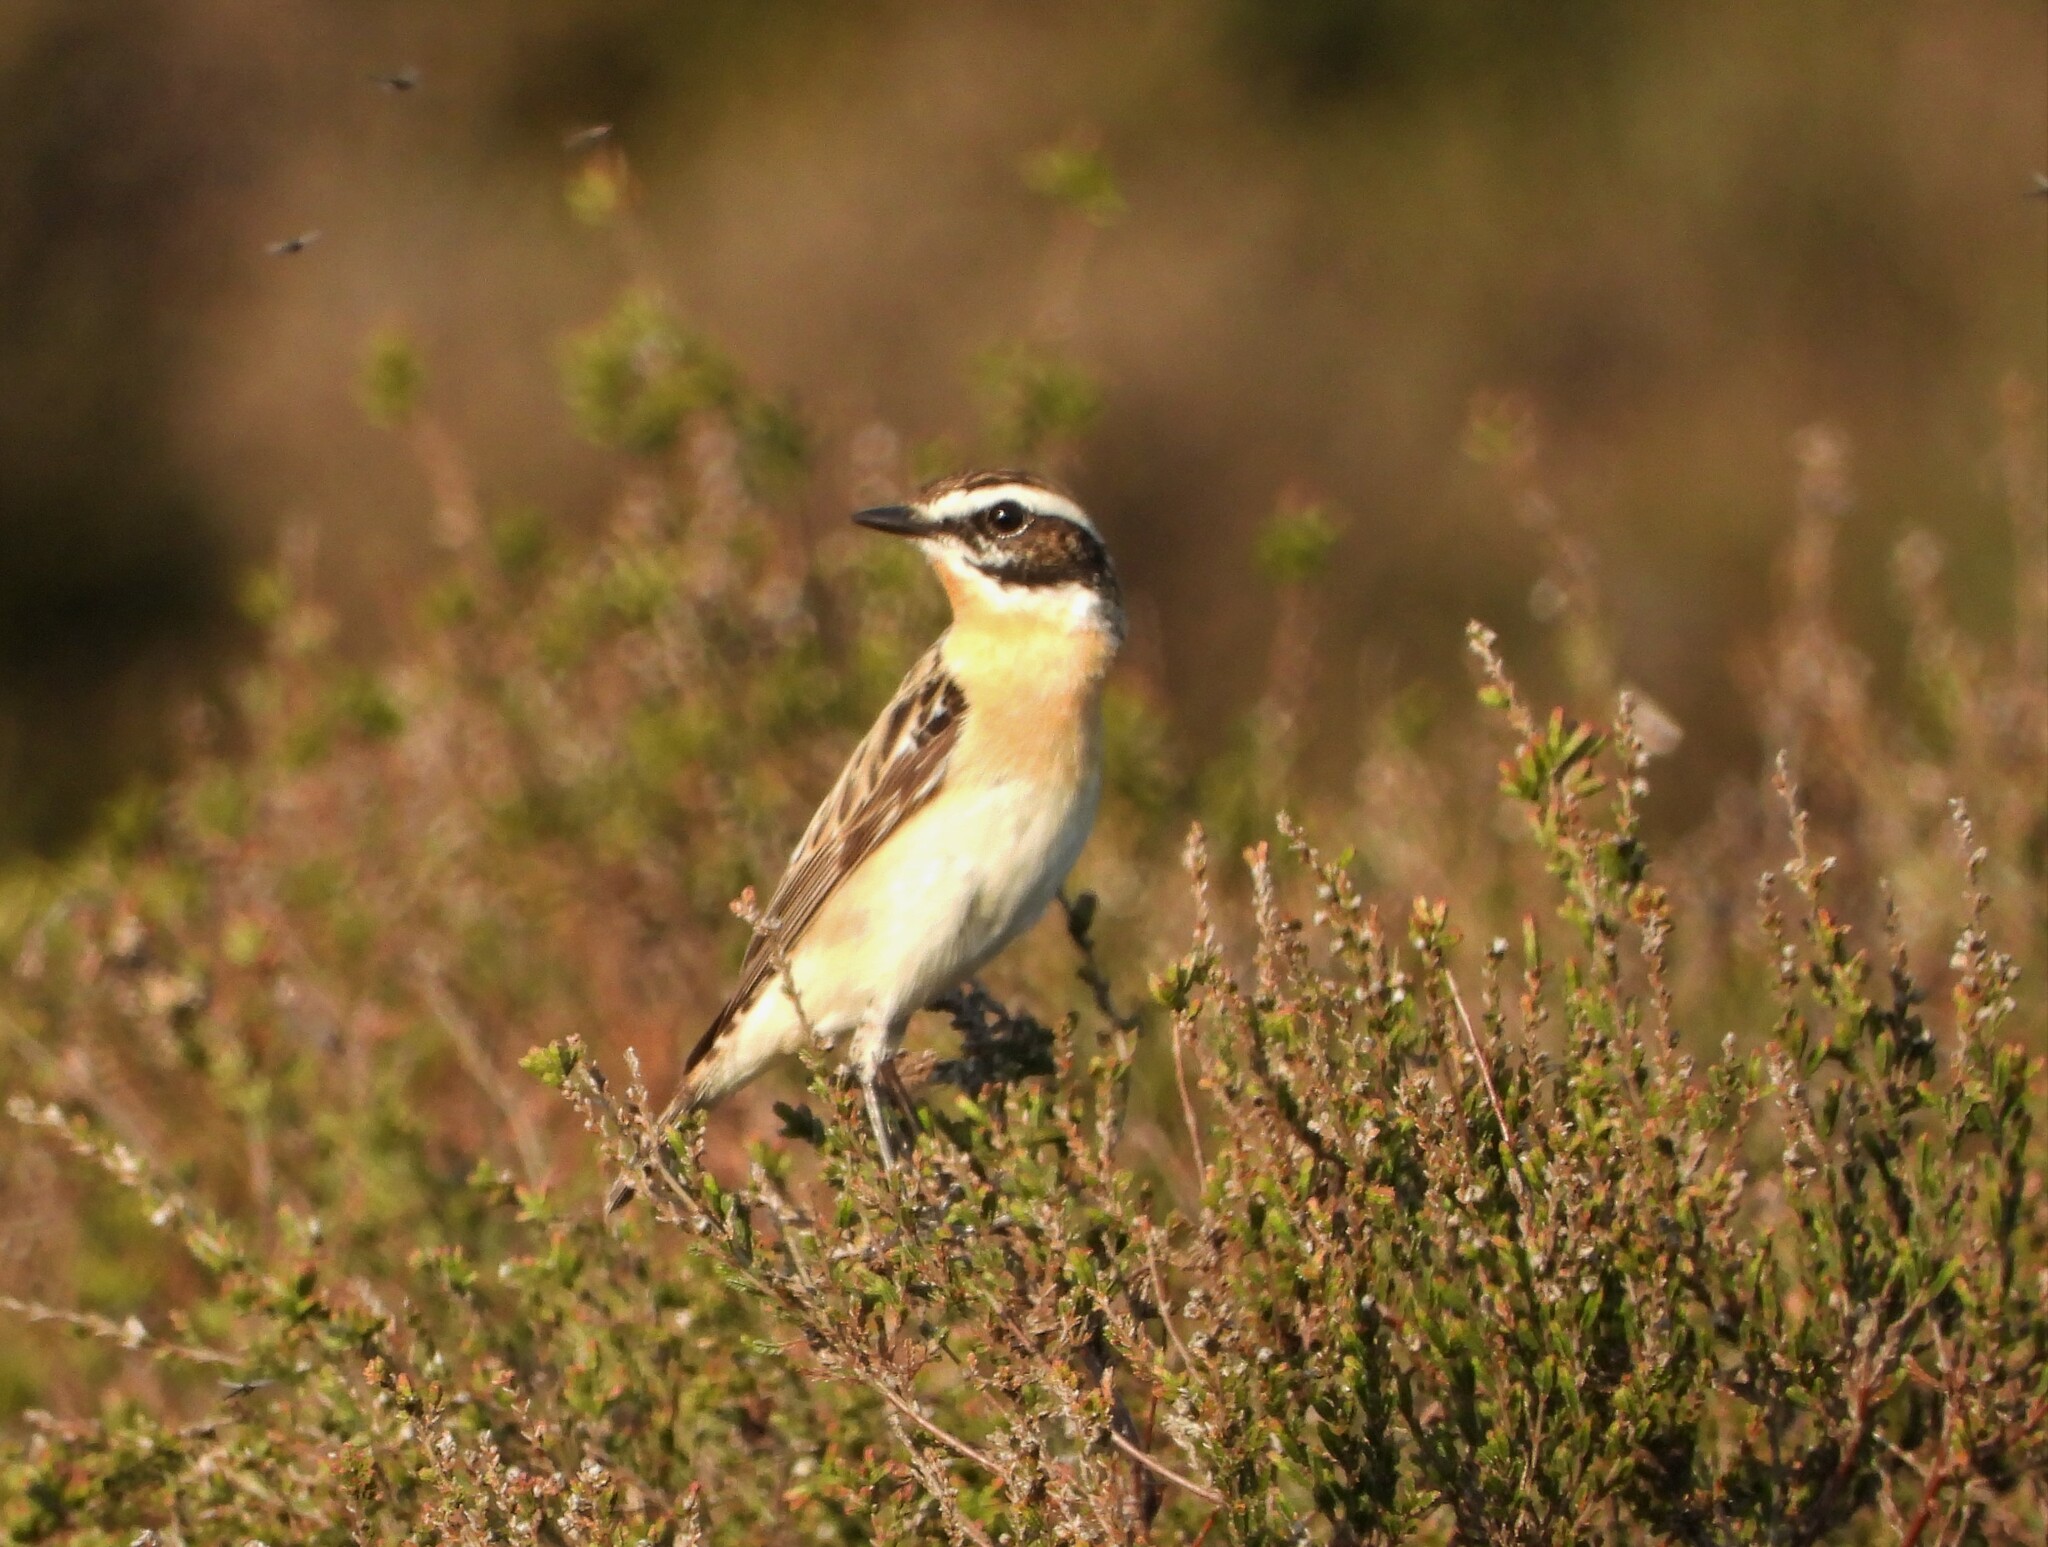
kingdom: Animalia
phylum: Chordata
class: Aves
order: Passeriformes
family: Muscicapidae
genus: Saxicola
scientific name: Saxicola rubetra
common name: Whinchat
